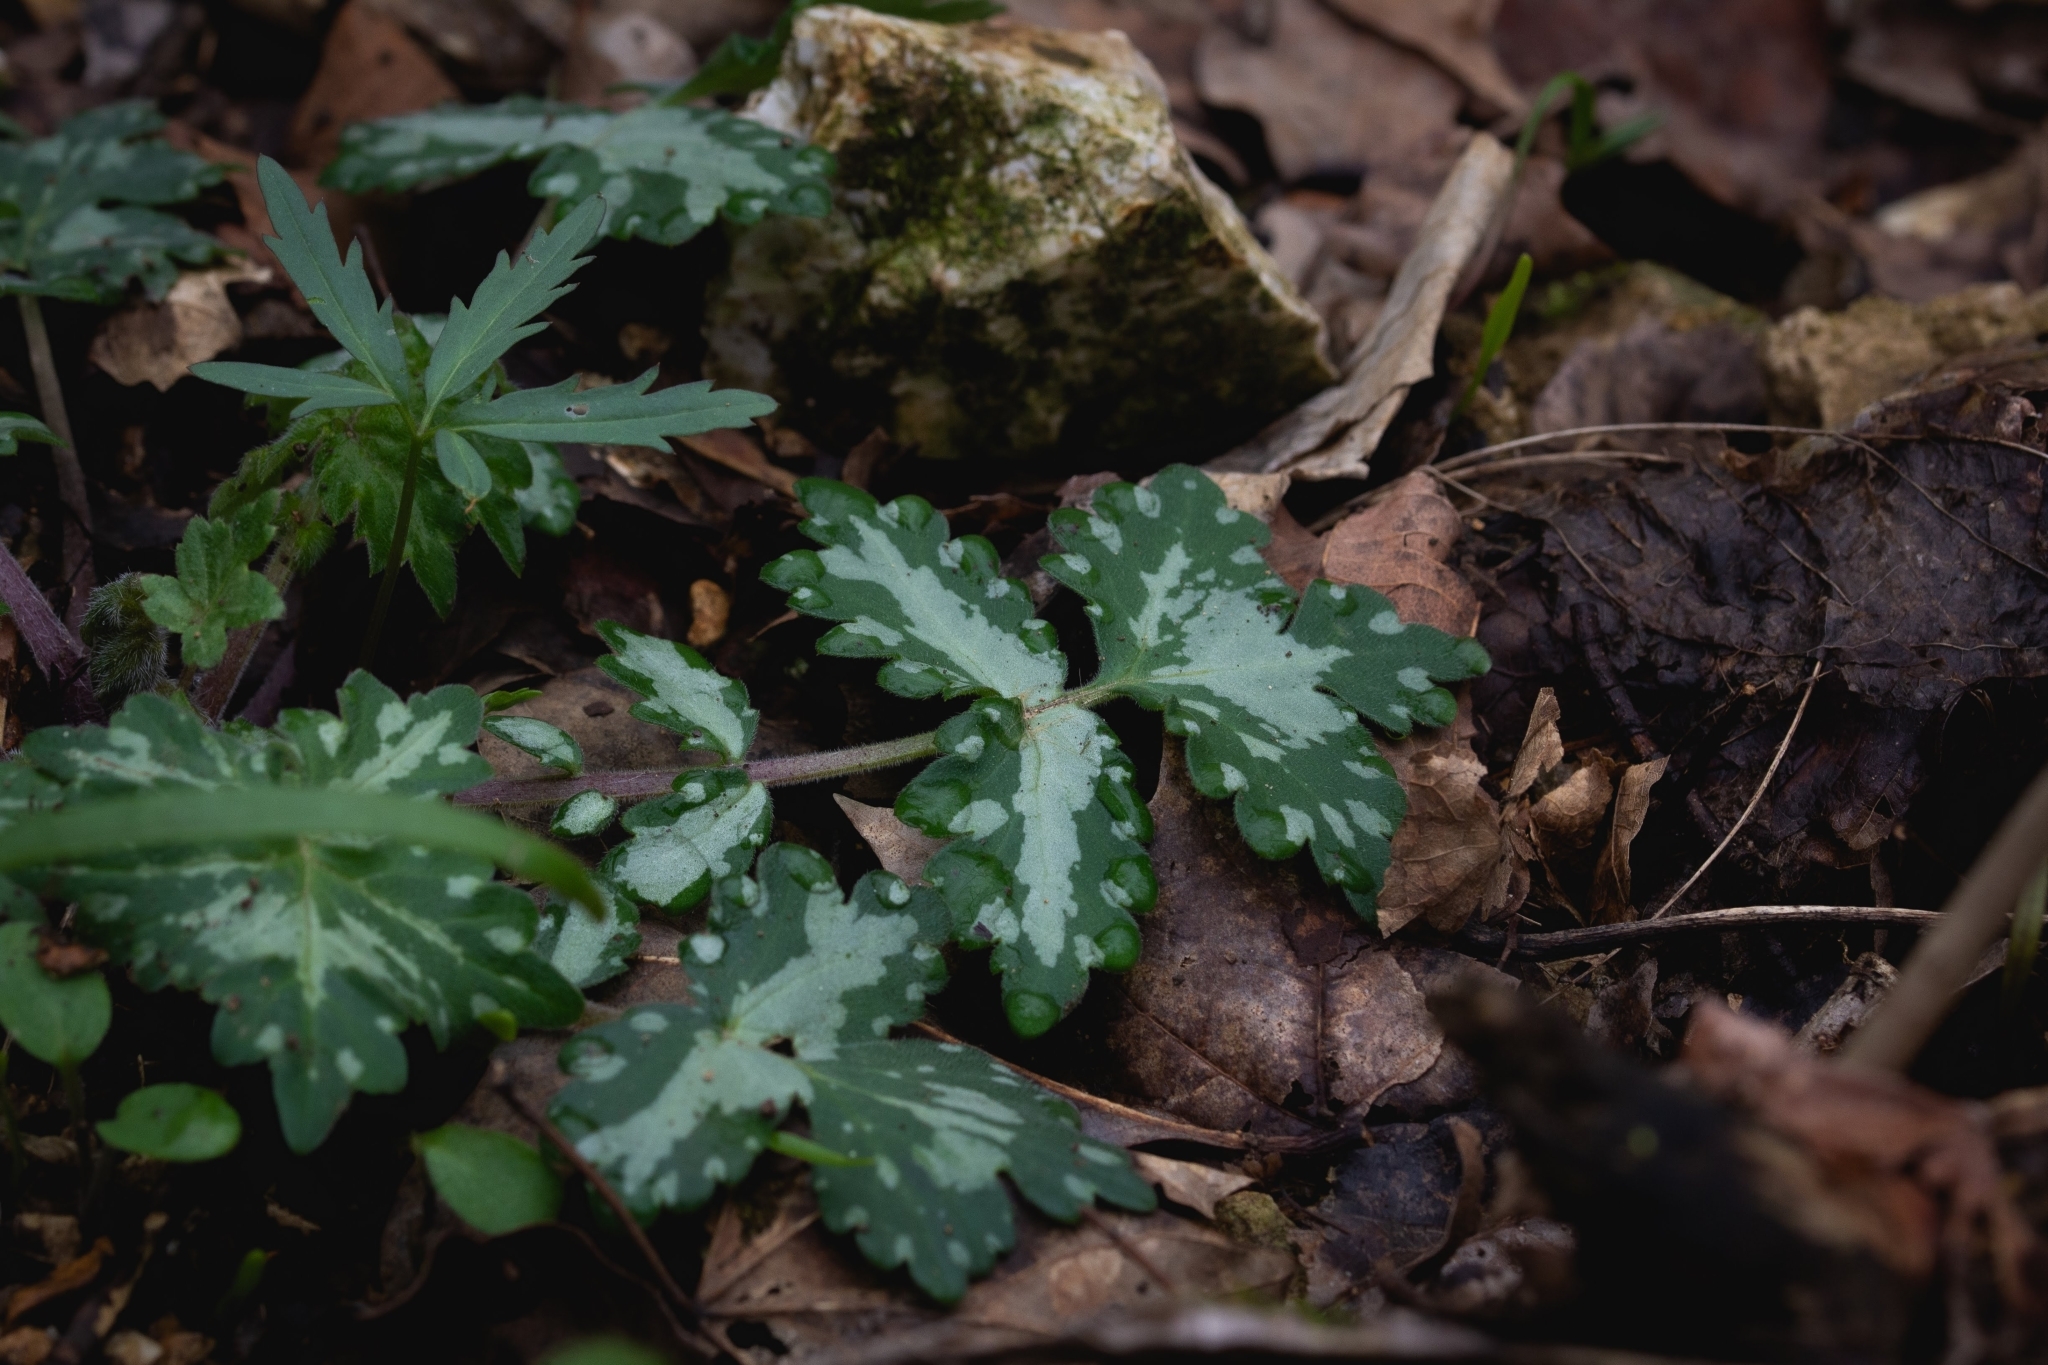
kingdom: Plantae
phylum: Tracheophyta
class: Magnoliopsida
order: Boraginales
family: Hydrophyllaceae
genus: Hydrophyllum
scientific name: Hydrophyllum appendiculatum
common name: Appendaged waterleaf
